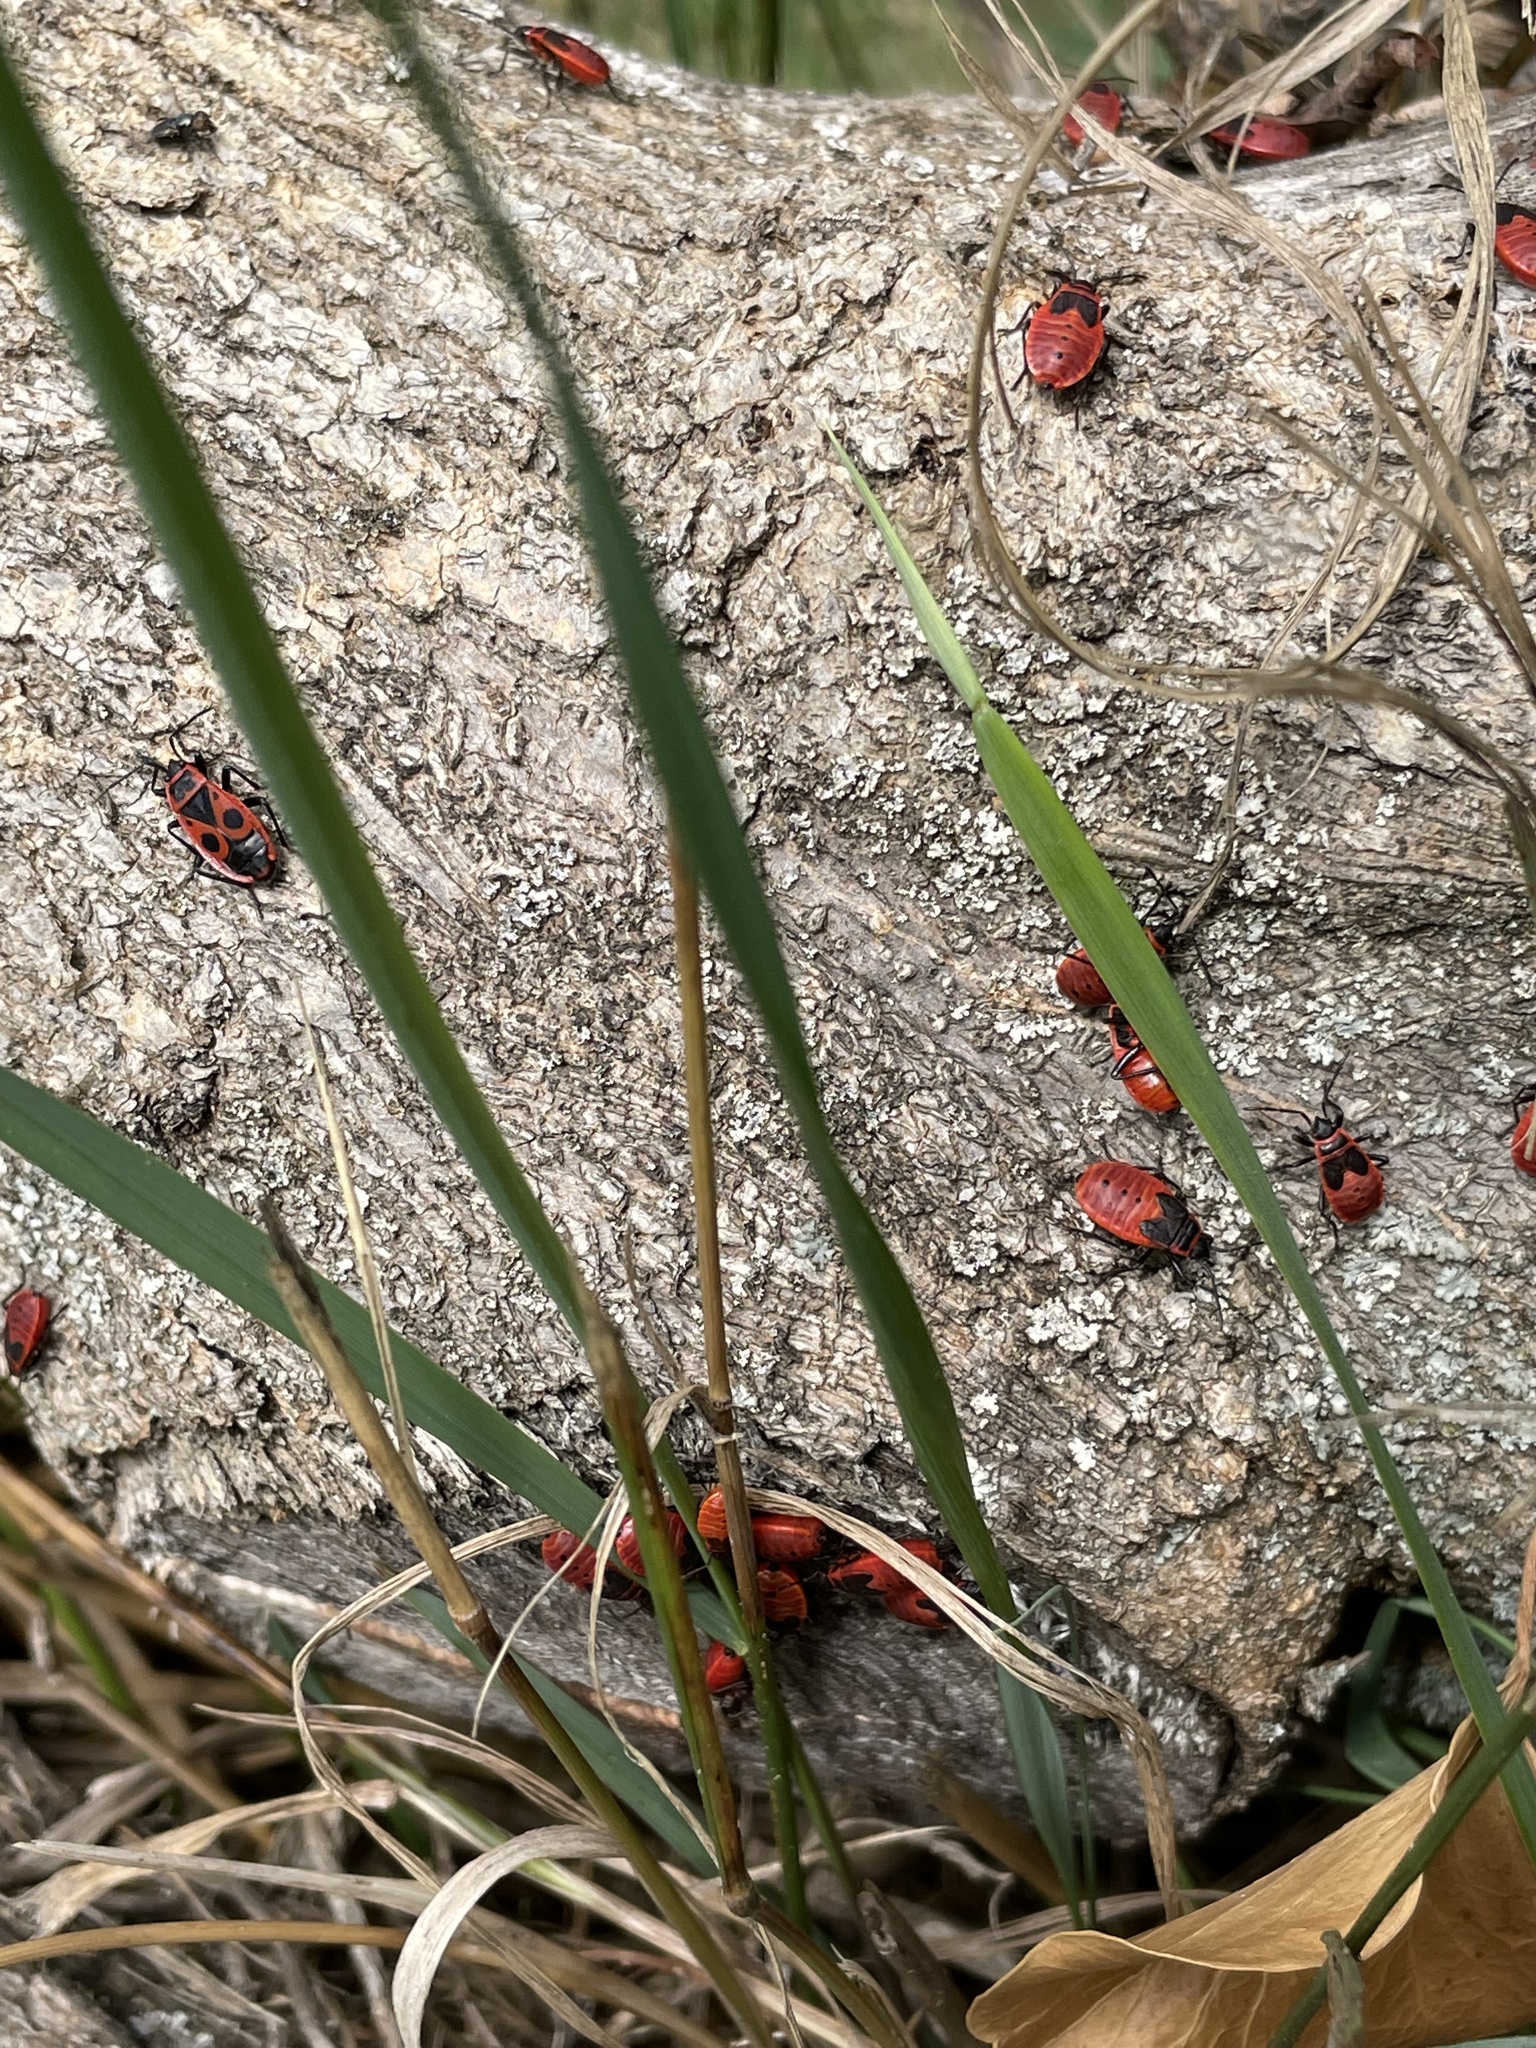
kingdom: Animalia
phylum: Arthropoda
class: Insecta
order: Hemiptera
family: Pyrrhocoridae
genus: Pyrrhocoris
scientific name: Pyrrhocoris apterus
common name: Firebug
